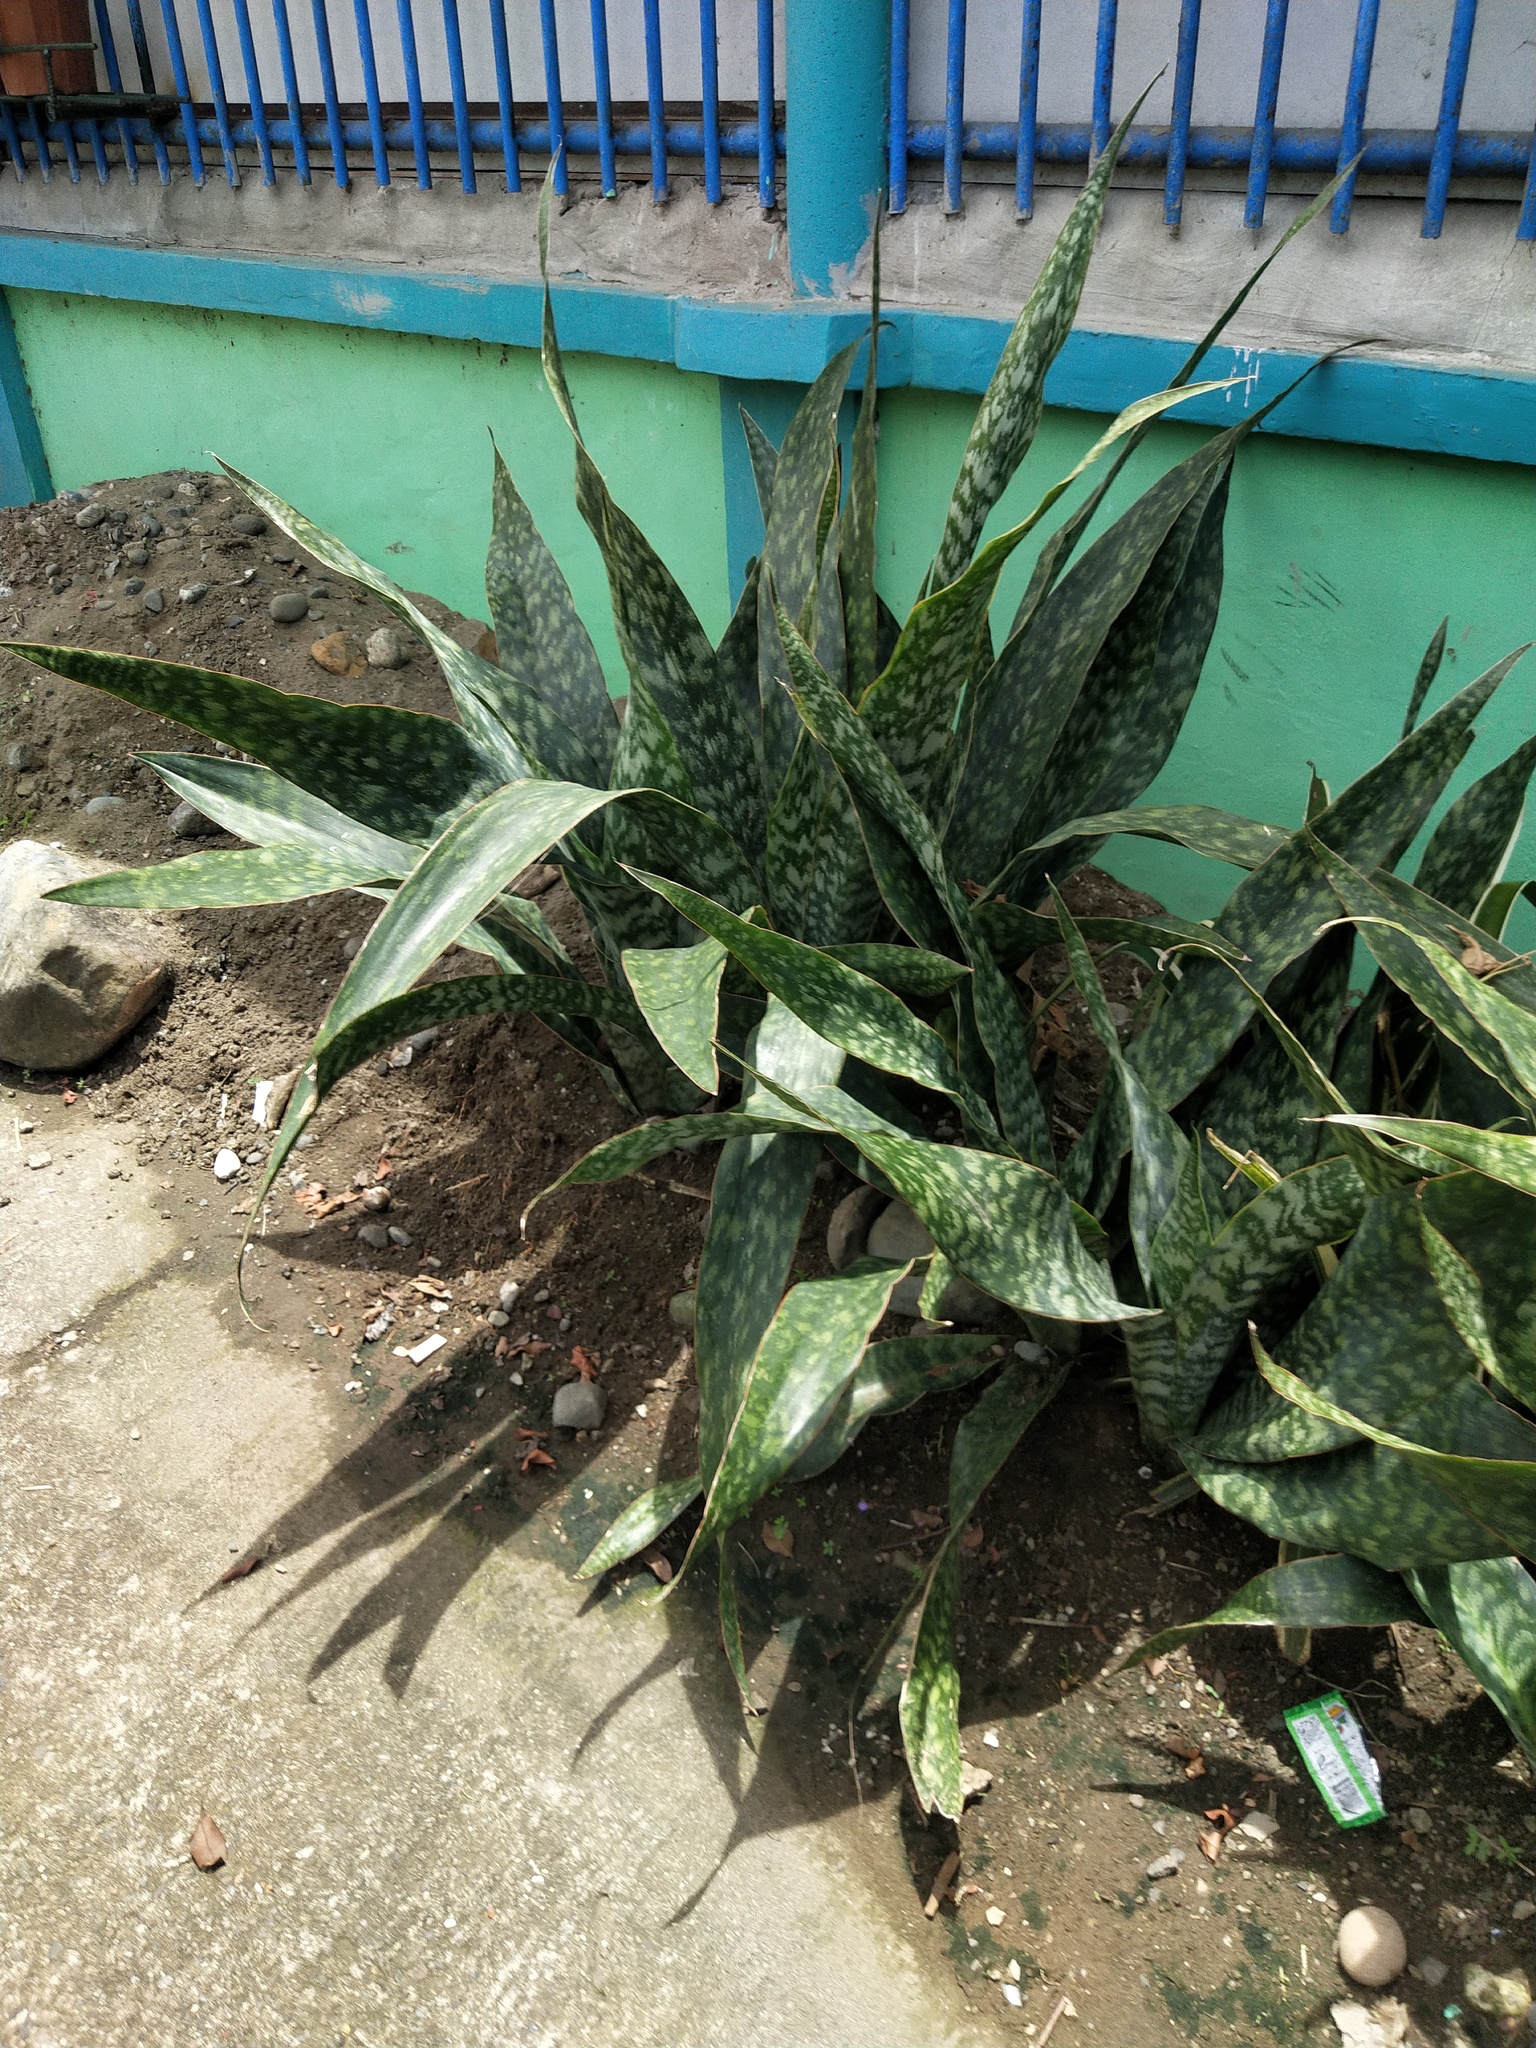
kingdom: Plantae
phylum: Tracheophyta
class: Liliopsida
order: Asparagales
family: Asparagaceae
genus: Dracaena
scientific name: Dracaena trifasciata
